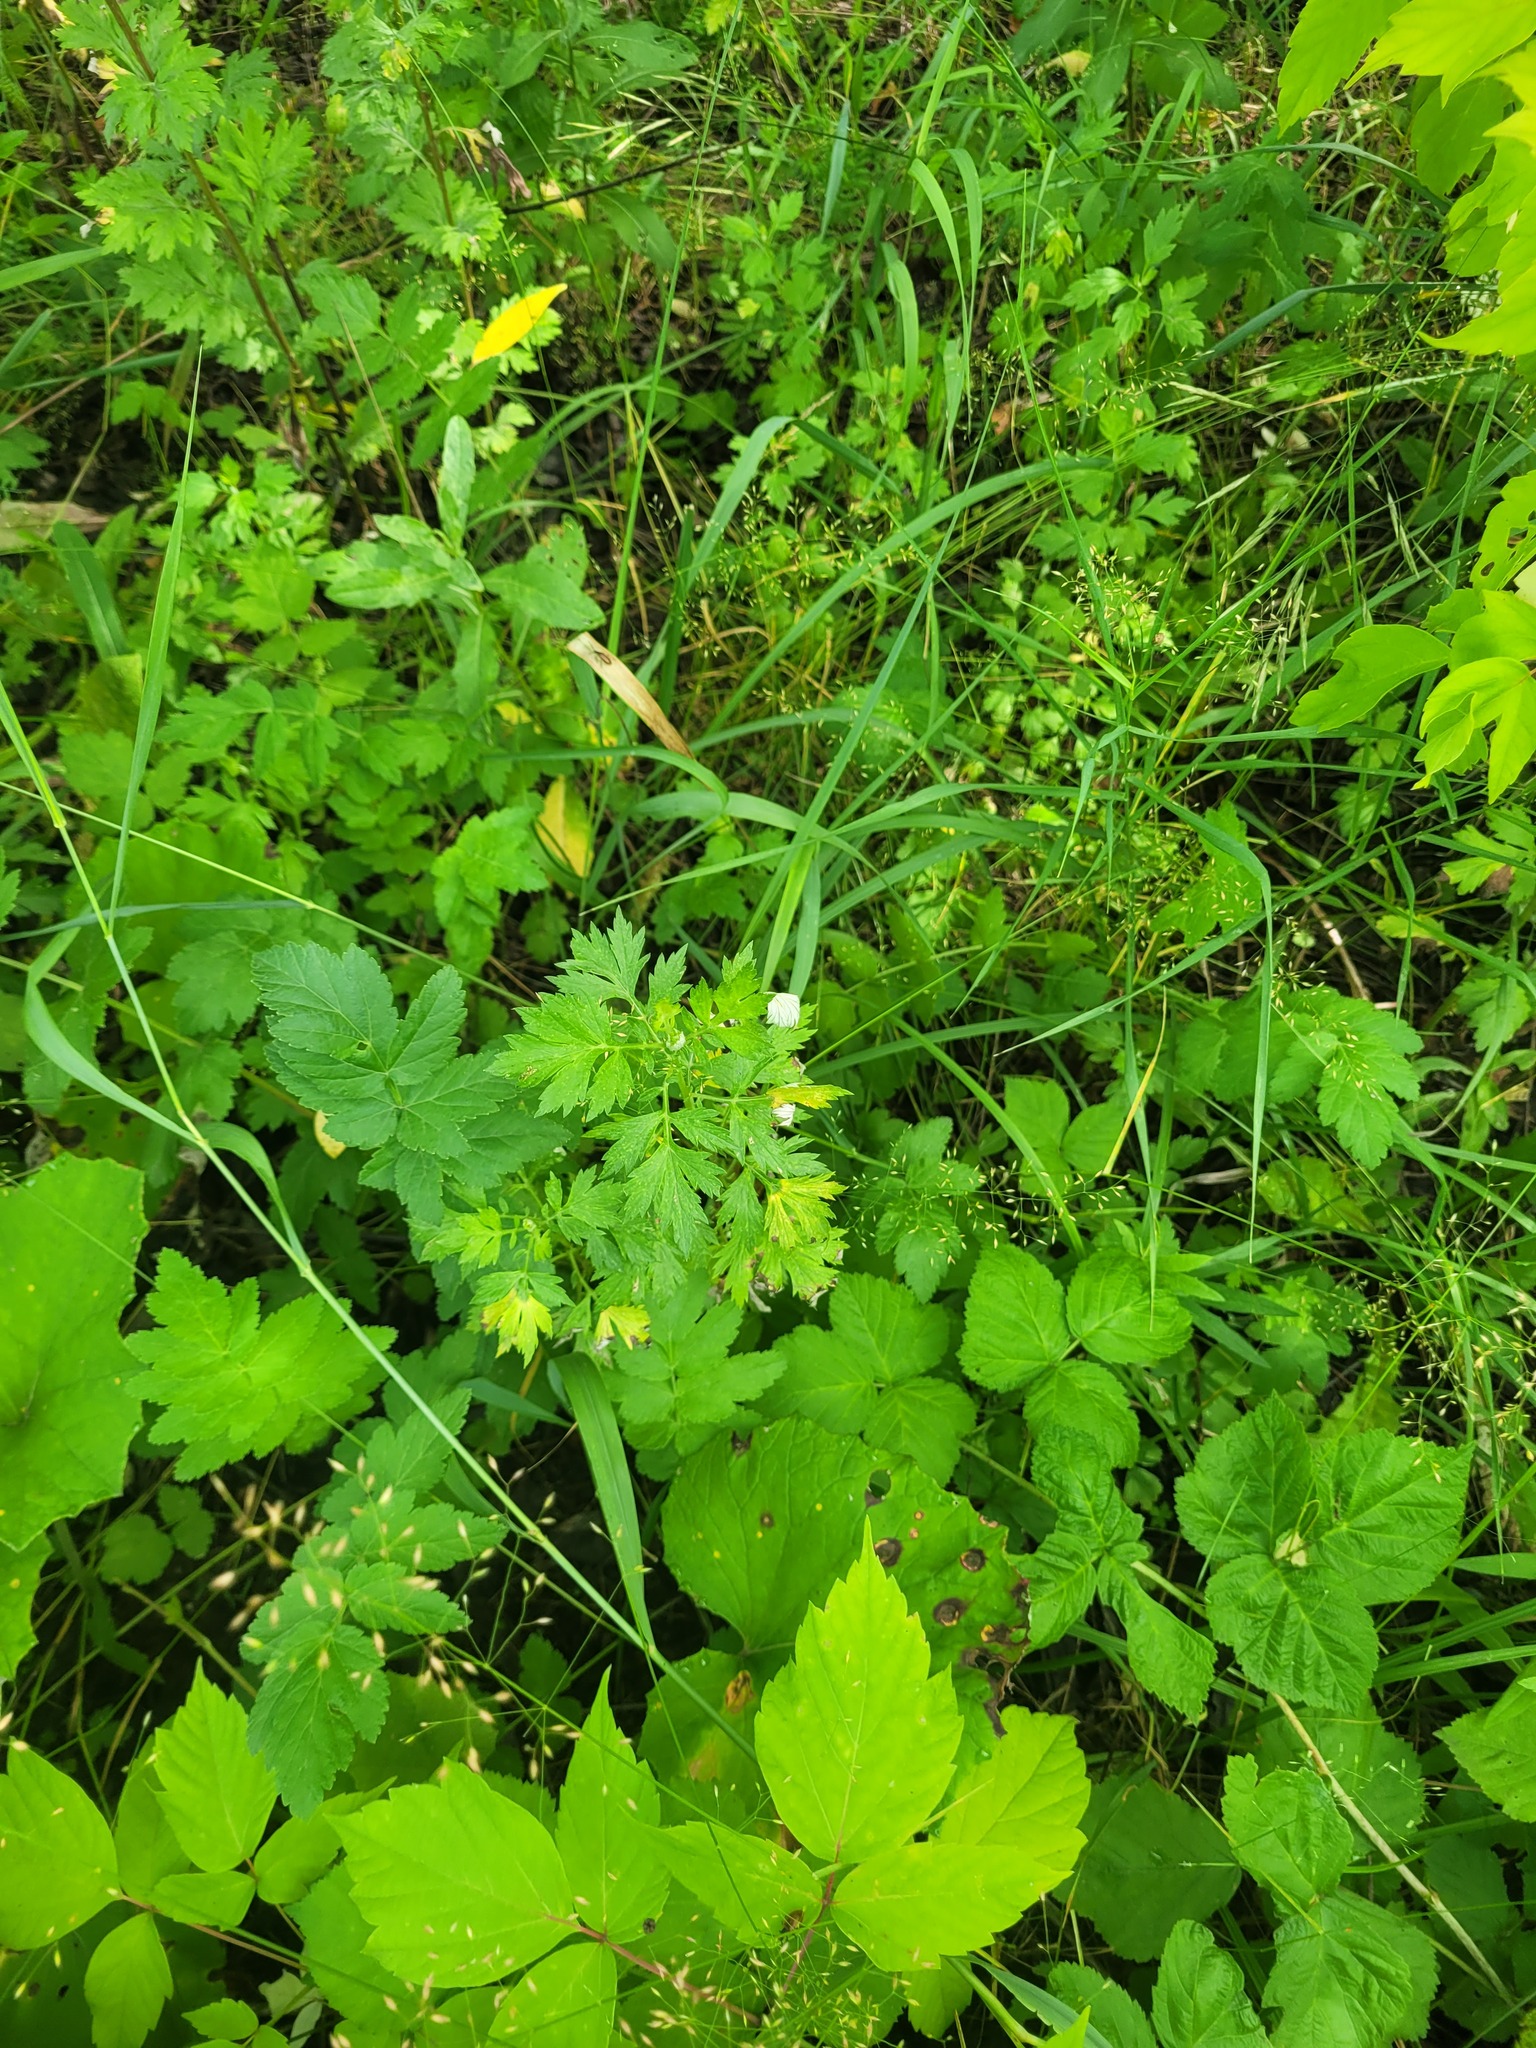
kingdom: Plantae
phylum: Tracheophyta
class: Magnoliopsida
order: Asterales
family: Asteraceae
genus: Artemisia
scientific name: Artemisia vulgaris
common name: Mugwort
